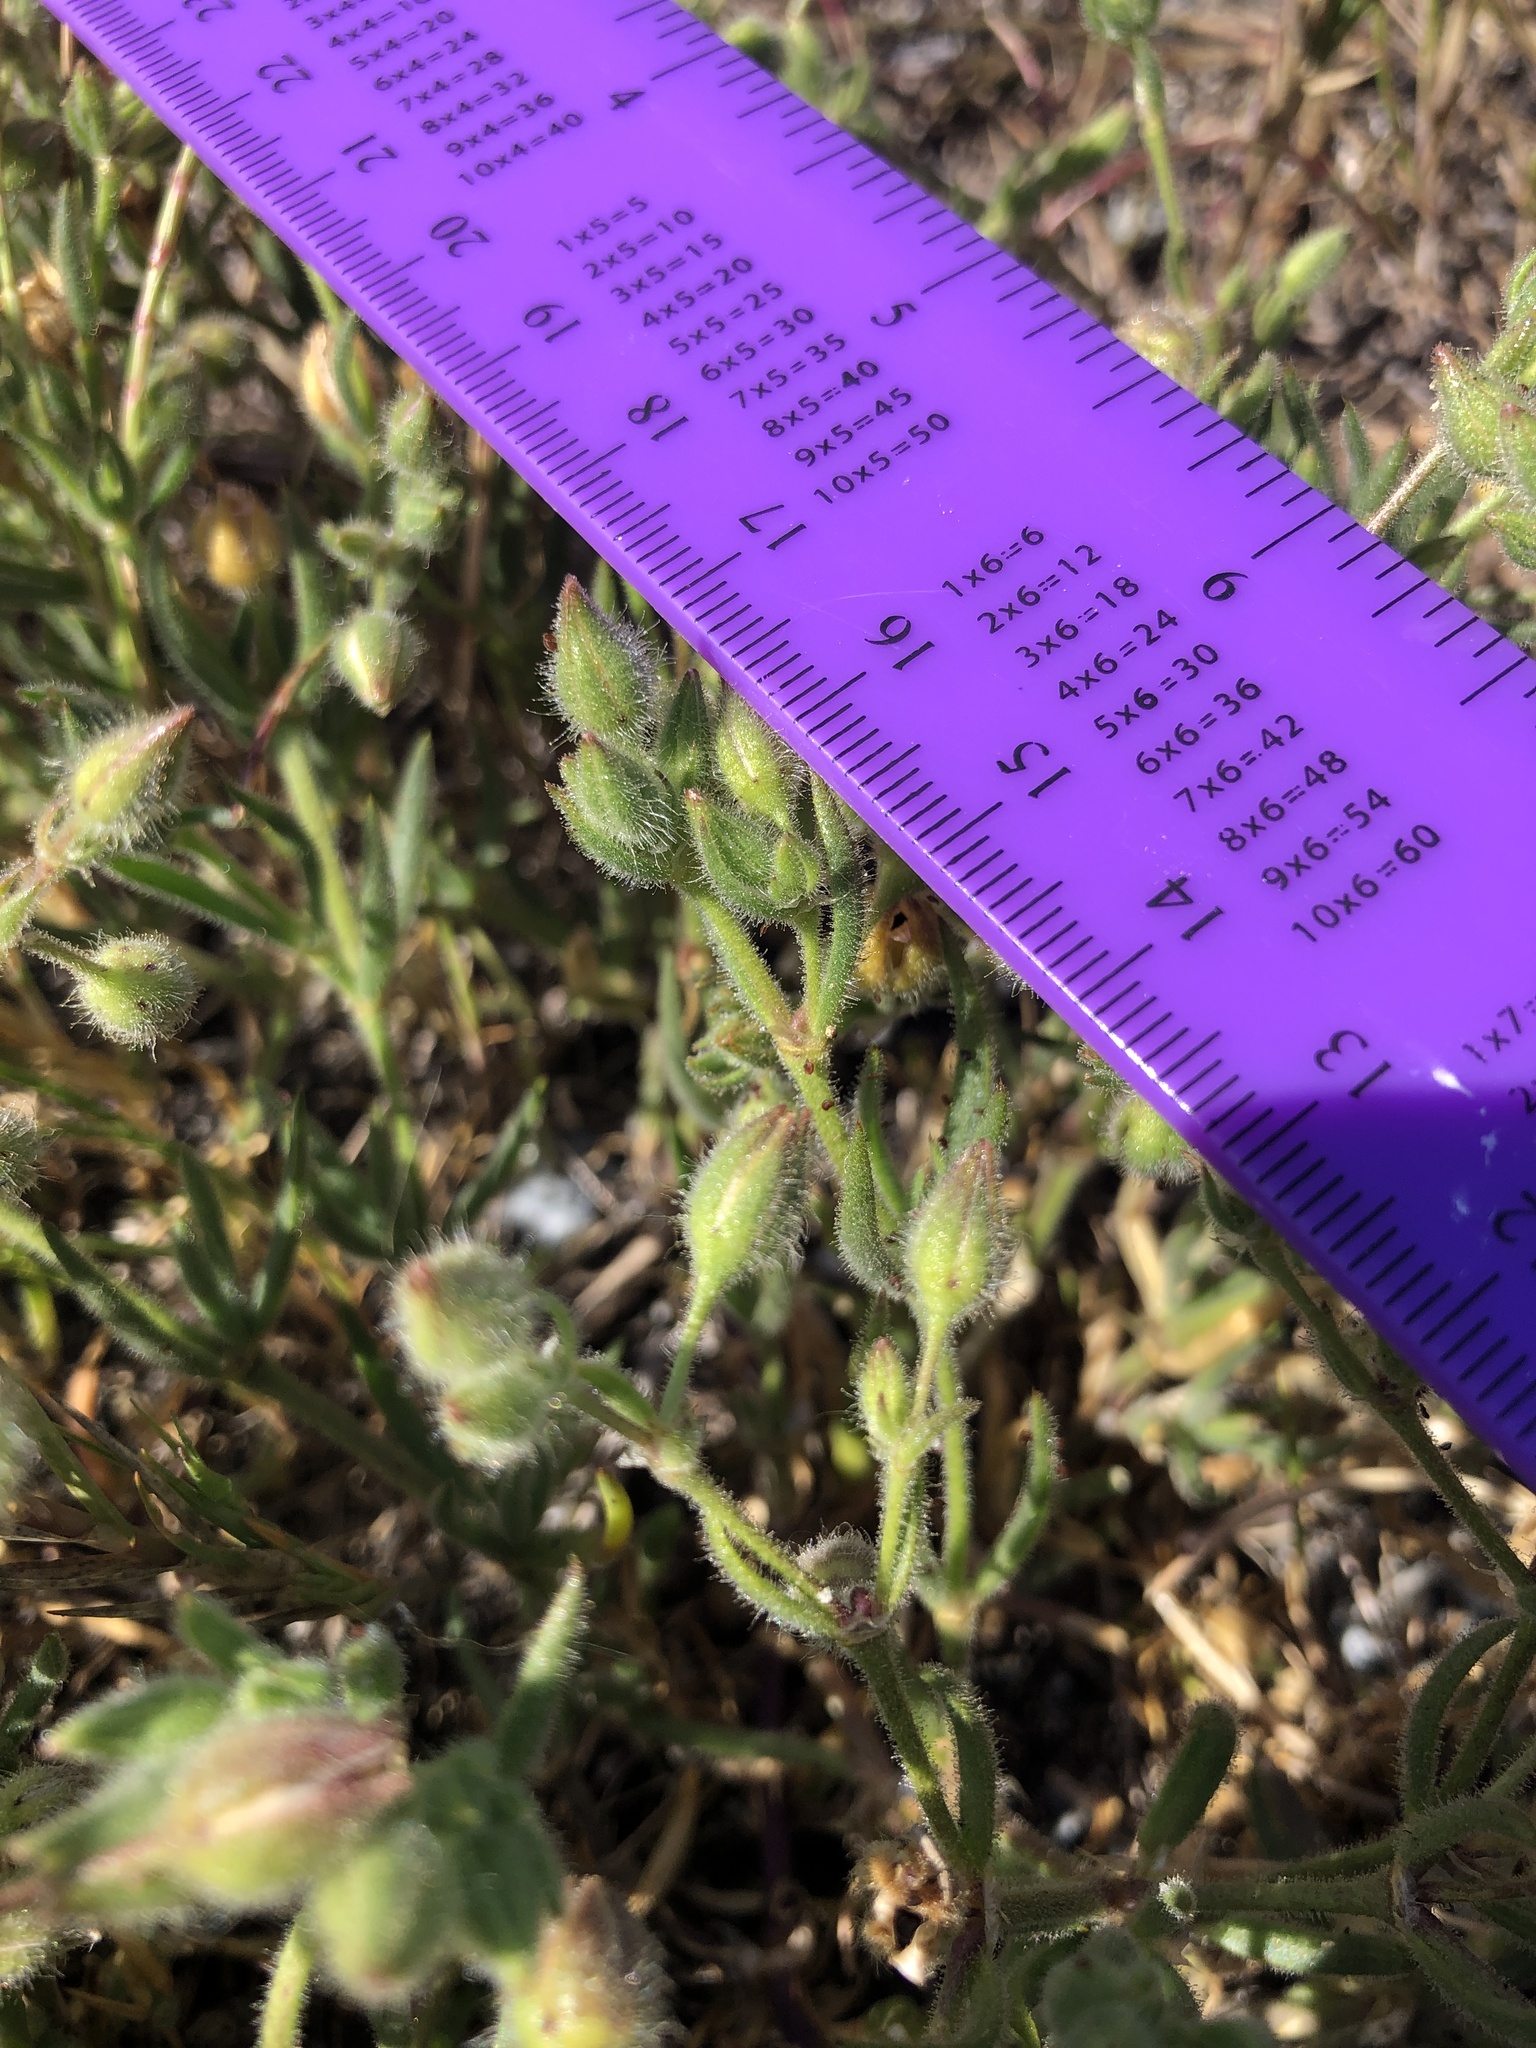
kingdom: Plantae
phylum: Tracheophyta
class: Magnoliopsida
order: Caryophyllales
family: Caryophyllaceae
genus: Spergularia
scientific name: Spergularia marina
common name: Lesser sea-spurrey
